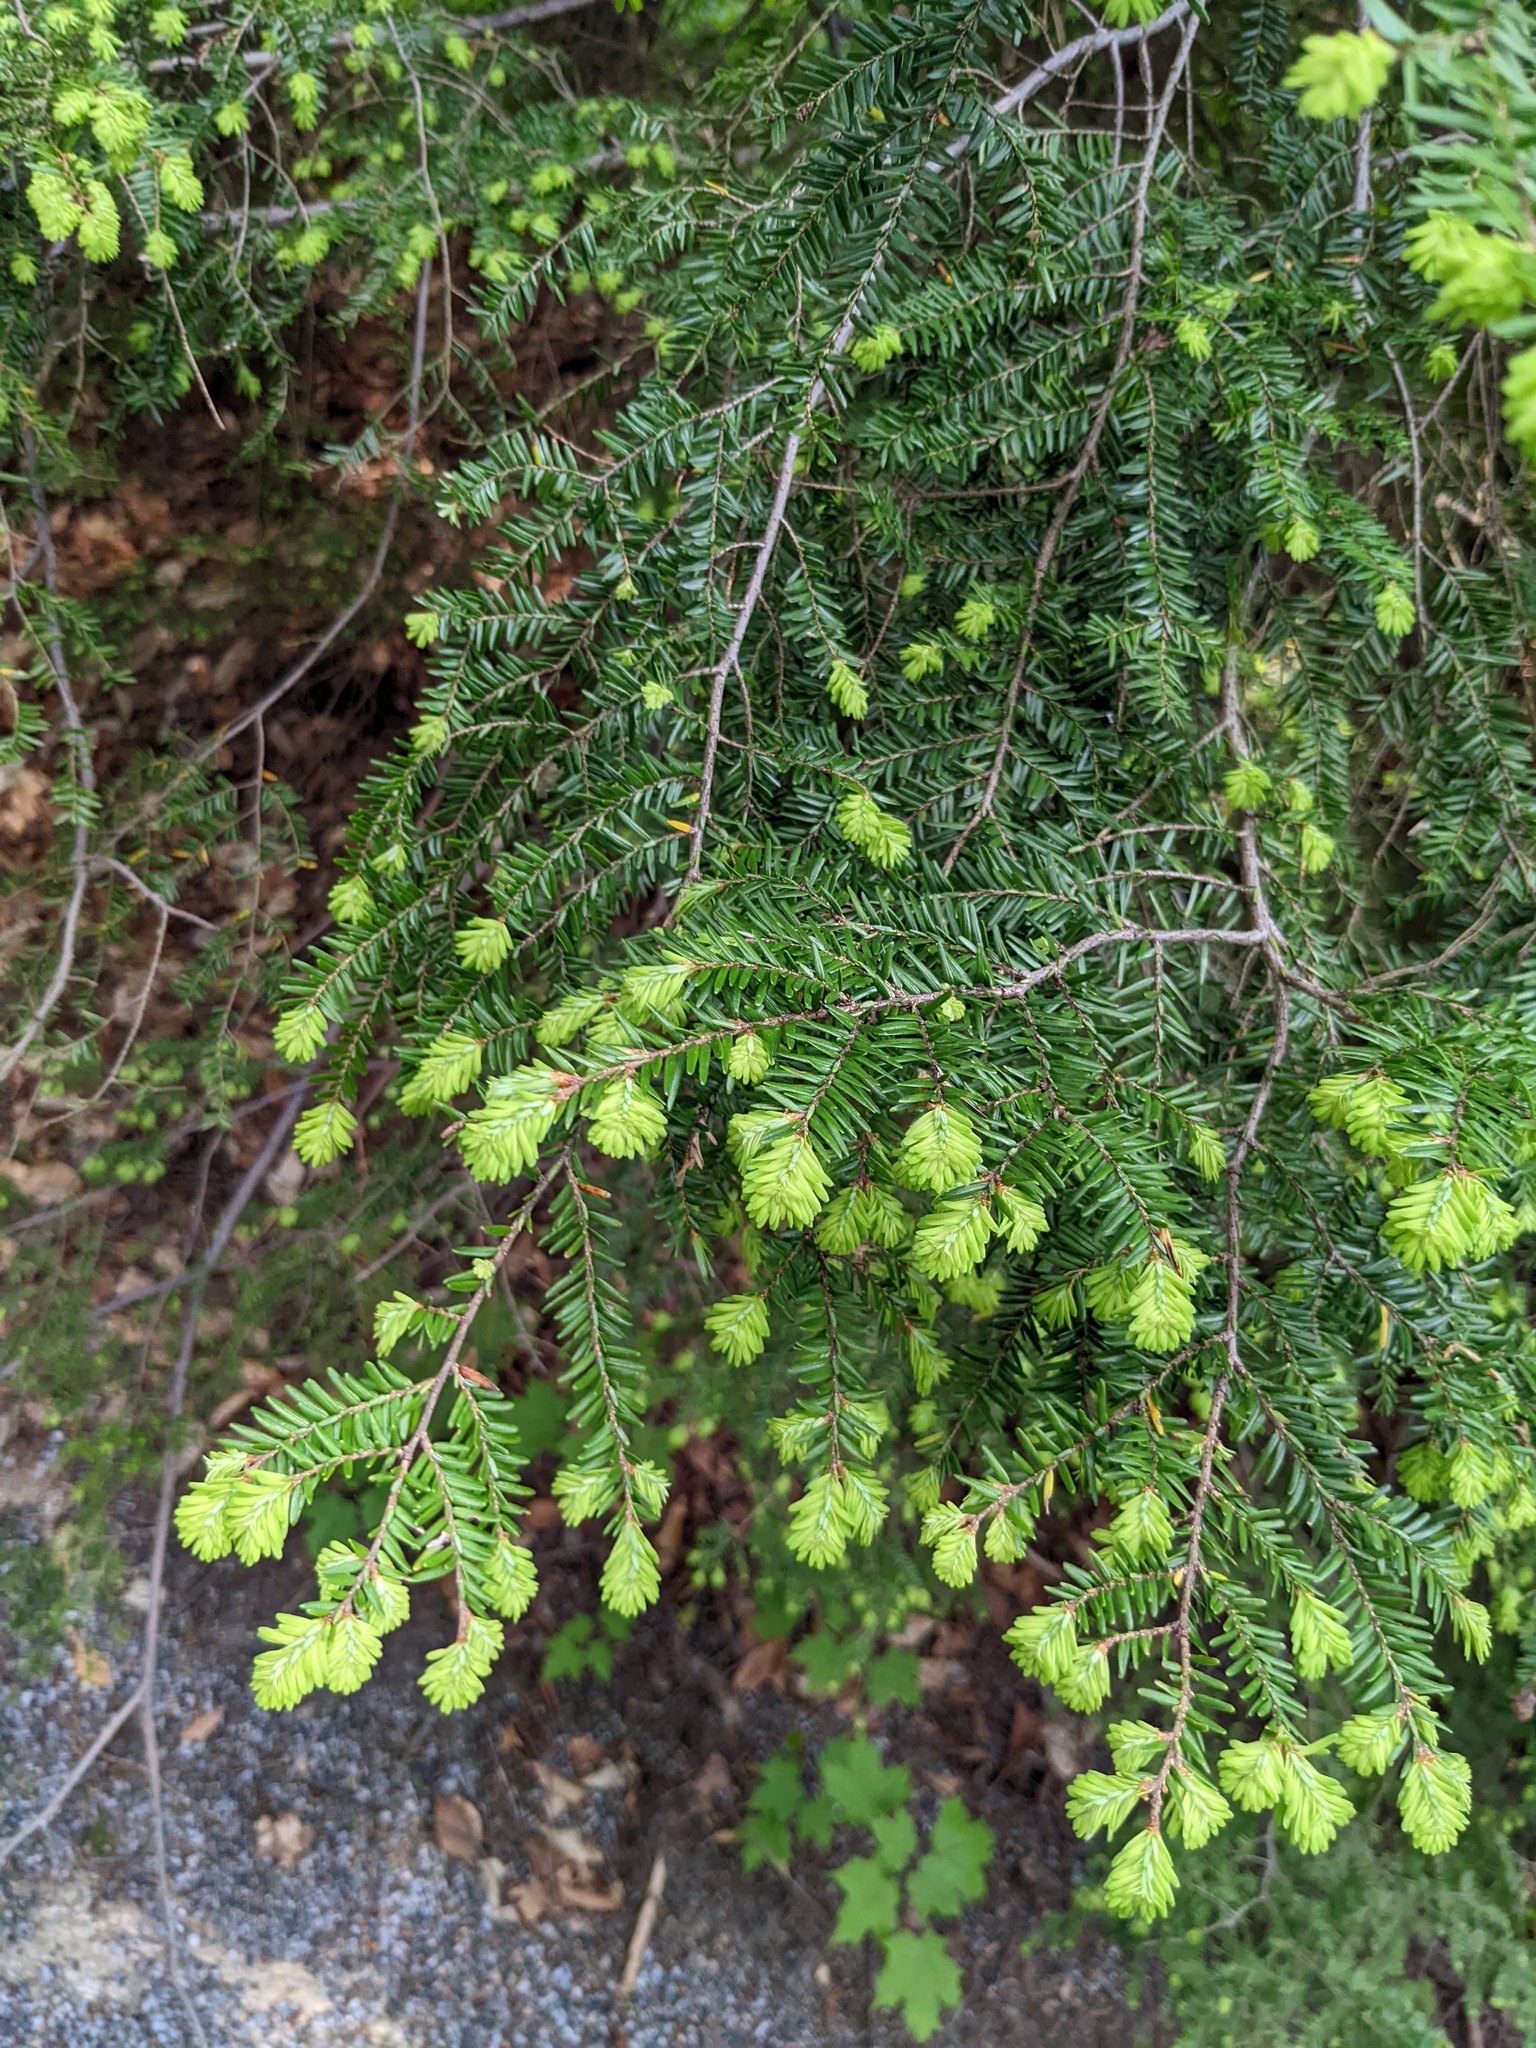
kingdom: Plantae
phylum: Tracheophyta
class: Pinopsida
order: Pinales
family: Pinaceae
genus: Tsuga
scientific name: Tsuga canadensis
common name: Eastern hemlock
